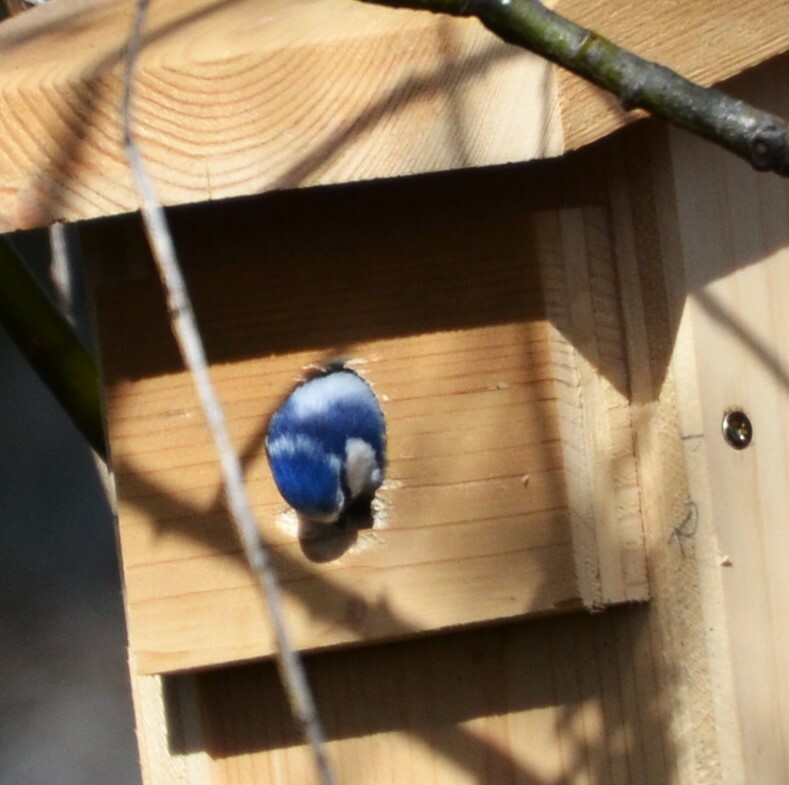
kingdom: Animalia
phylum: Chordata
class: Aves
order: Passeriformes
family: Paridae
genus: Cyanistes
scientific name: Cyanistes caeruleus
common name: Eurasian blue tit
